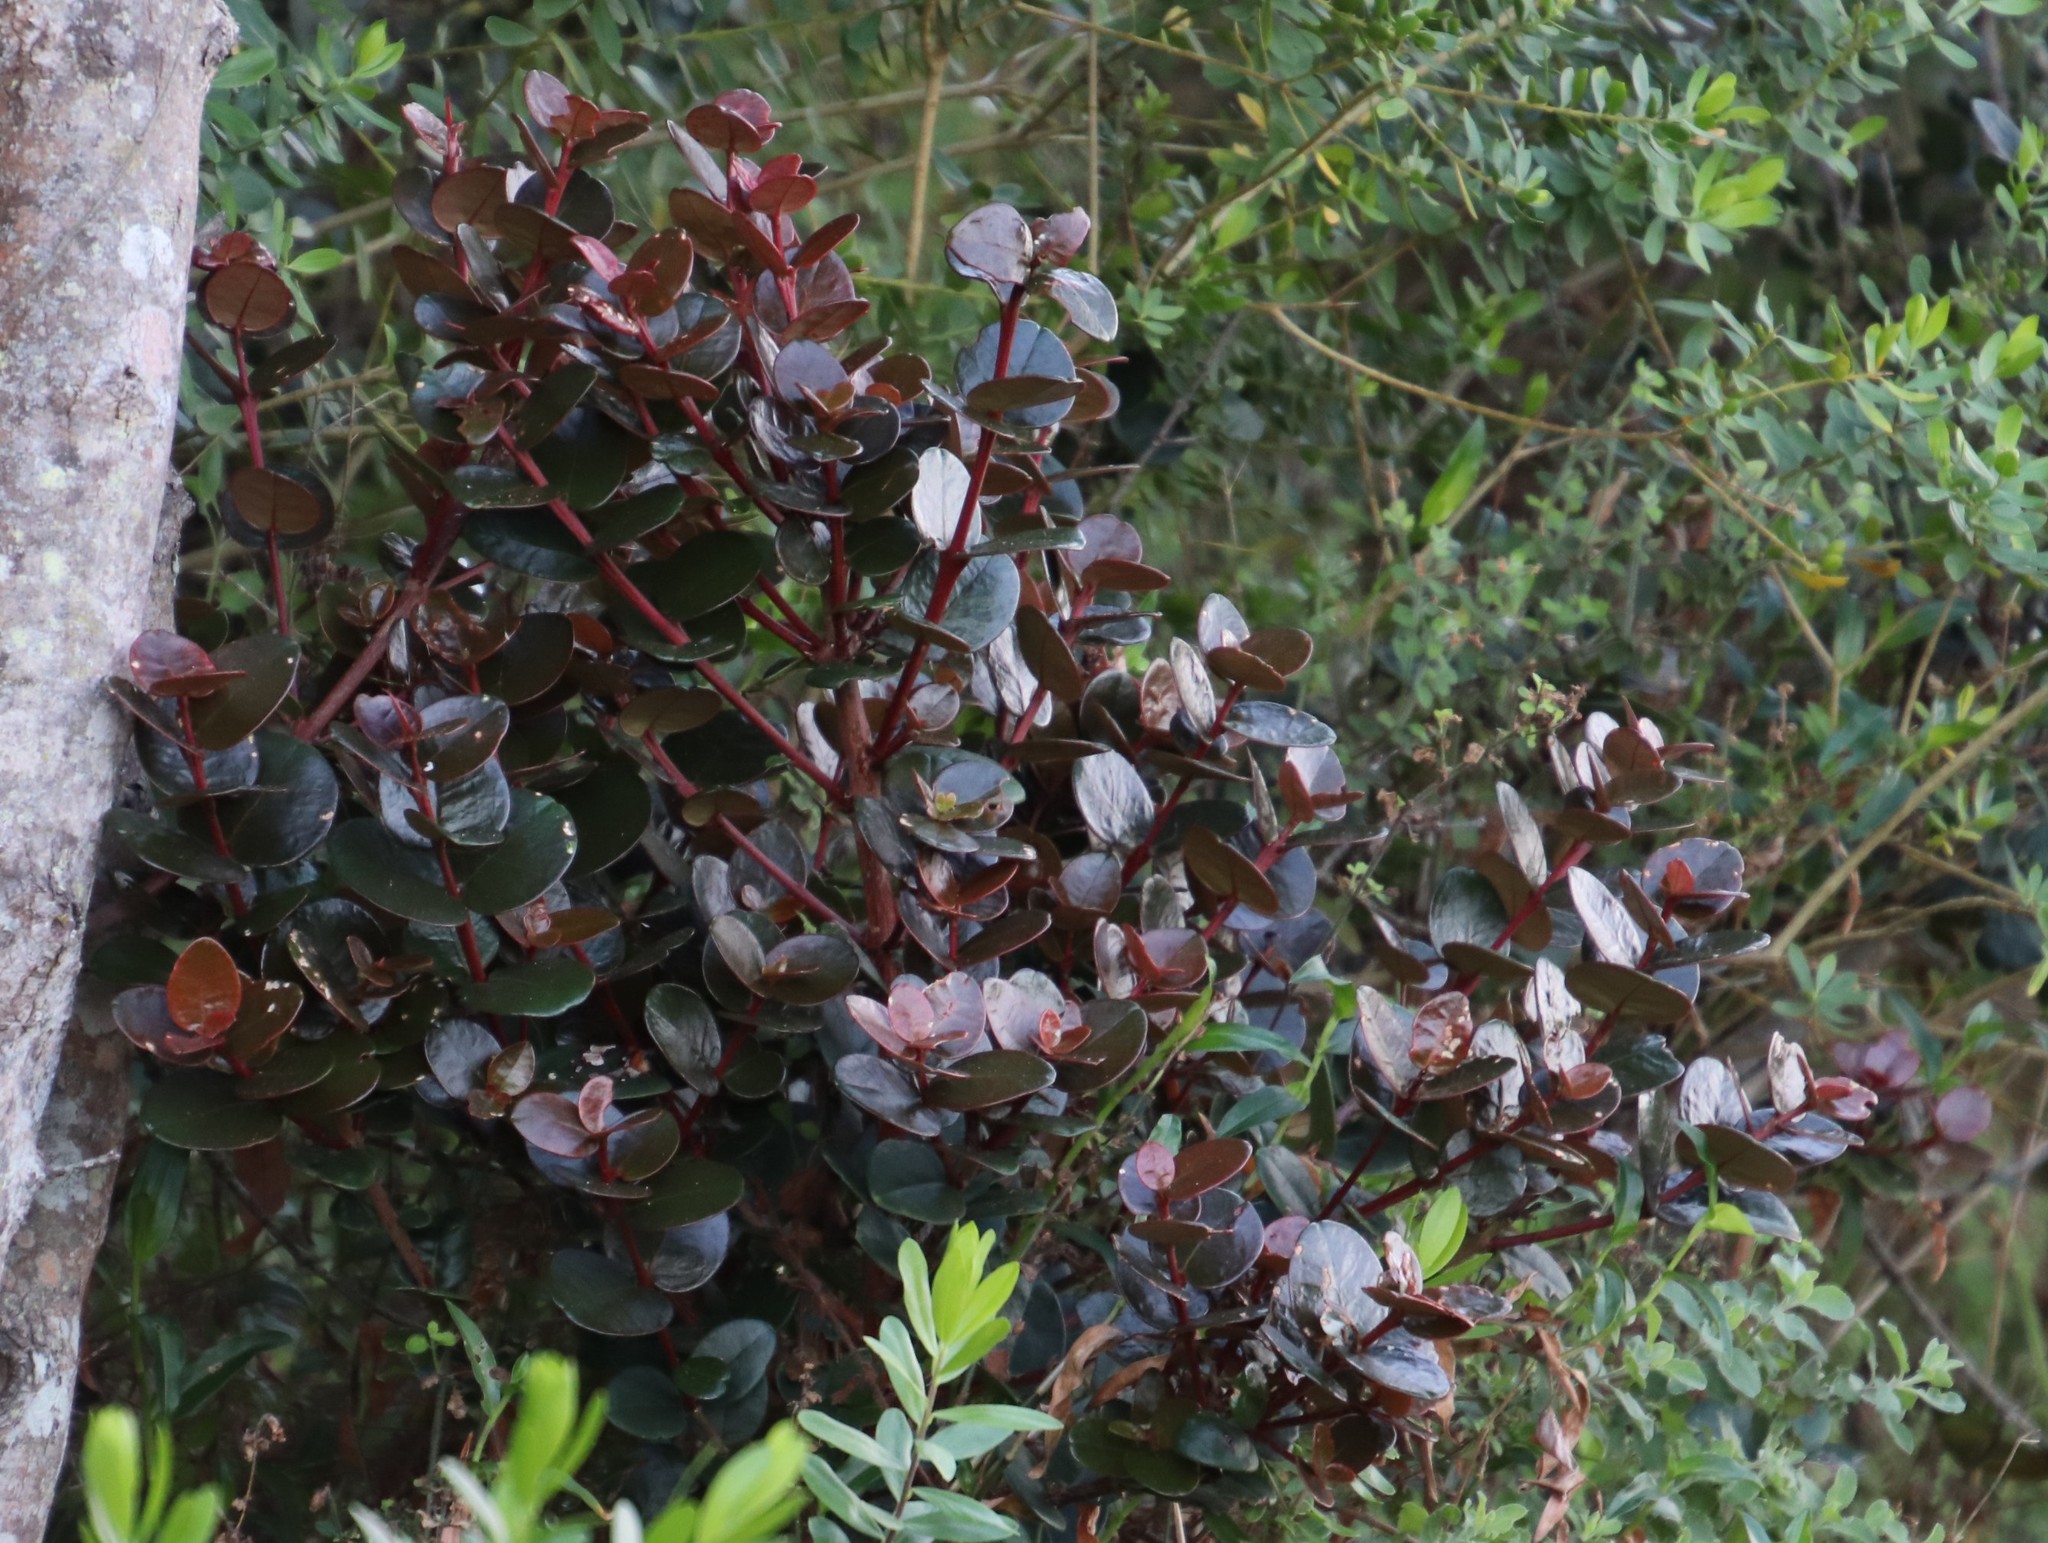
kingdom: Plantae
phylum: Tracheophyta
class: Magnoliopsida
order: Celastrales
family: Celastraceae
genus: Maurocenia
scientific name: Maurocenia frangula
